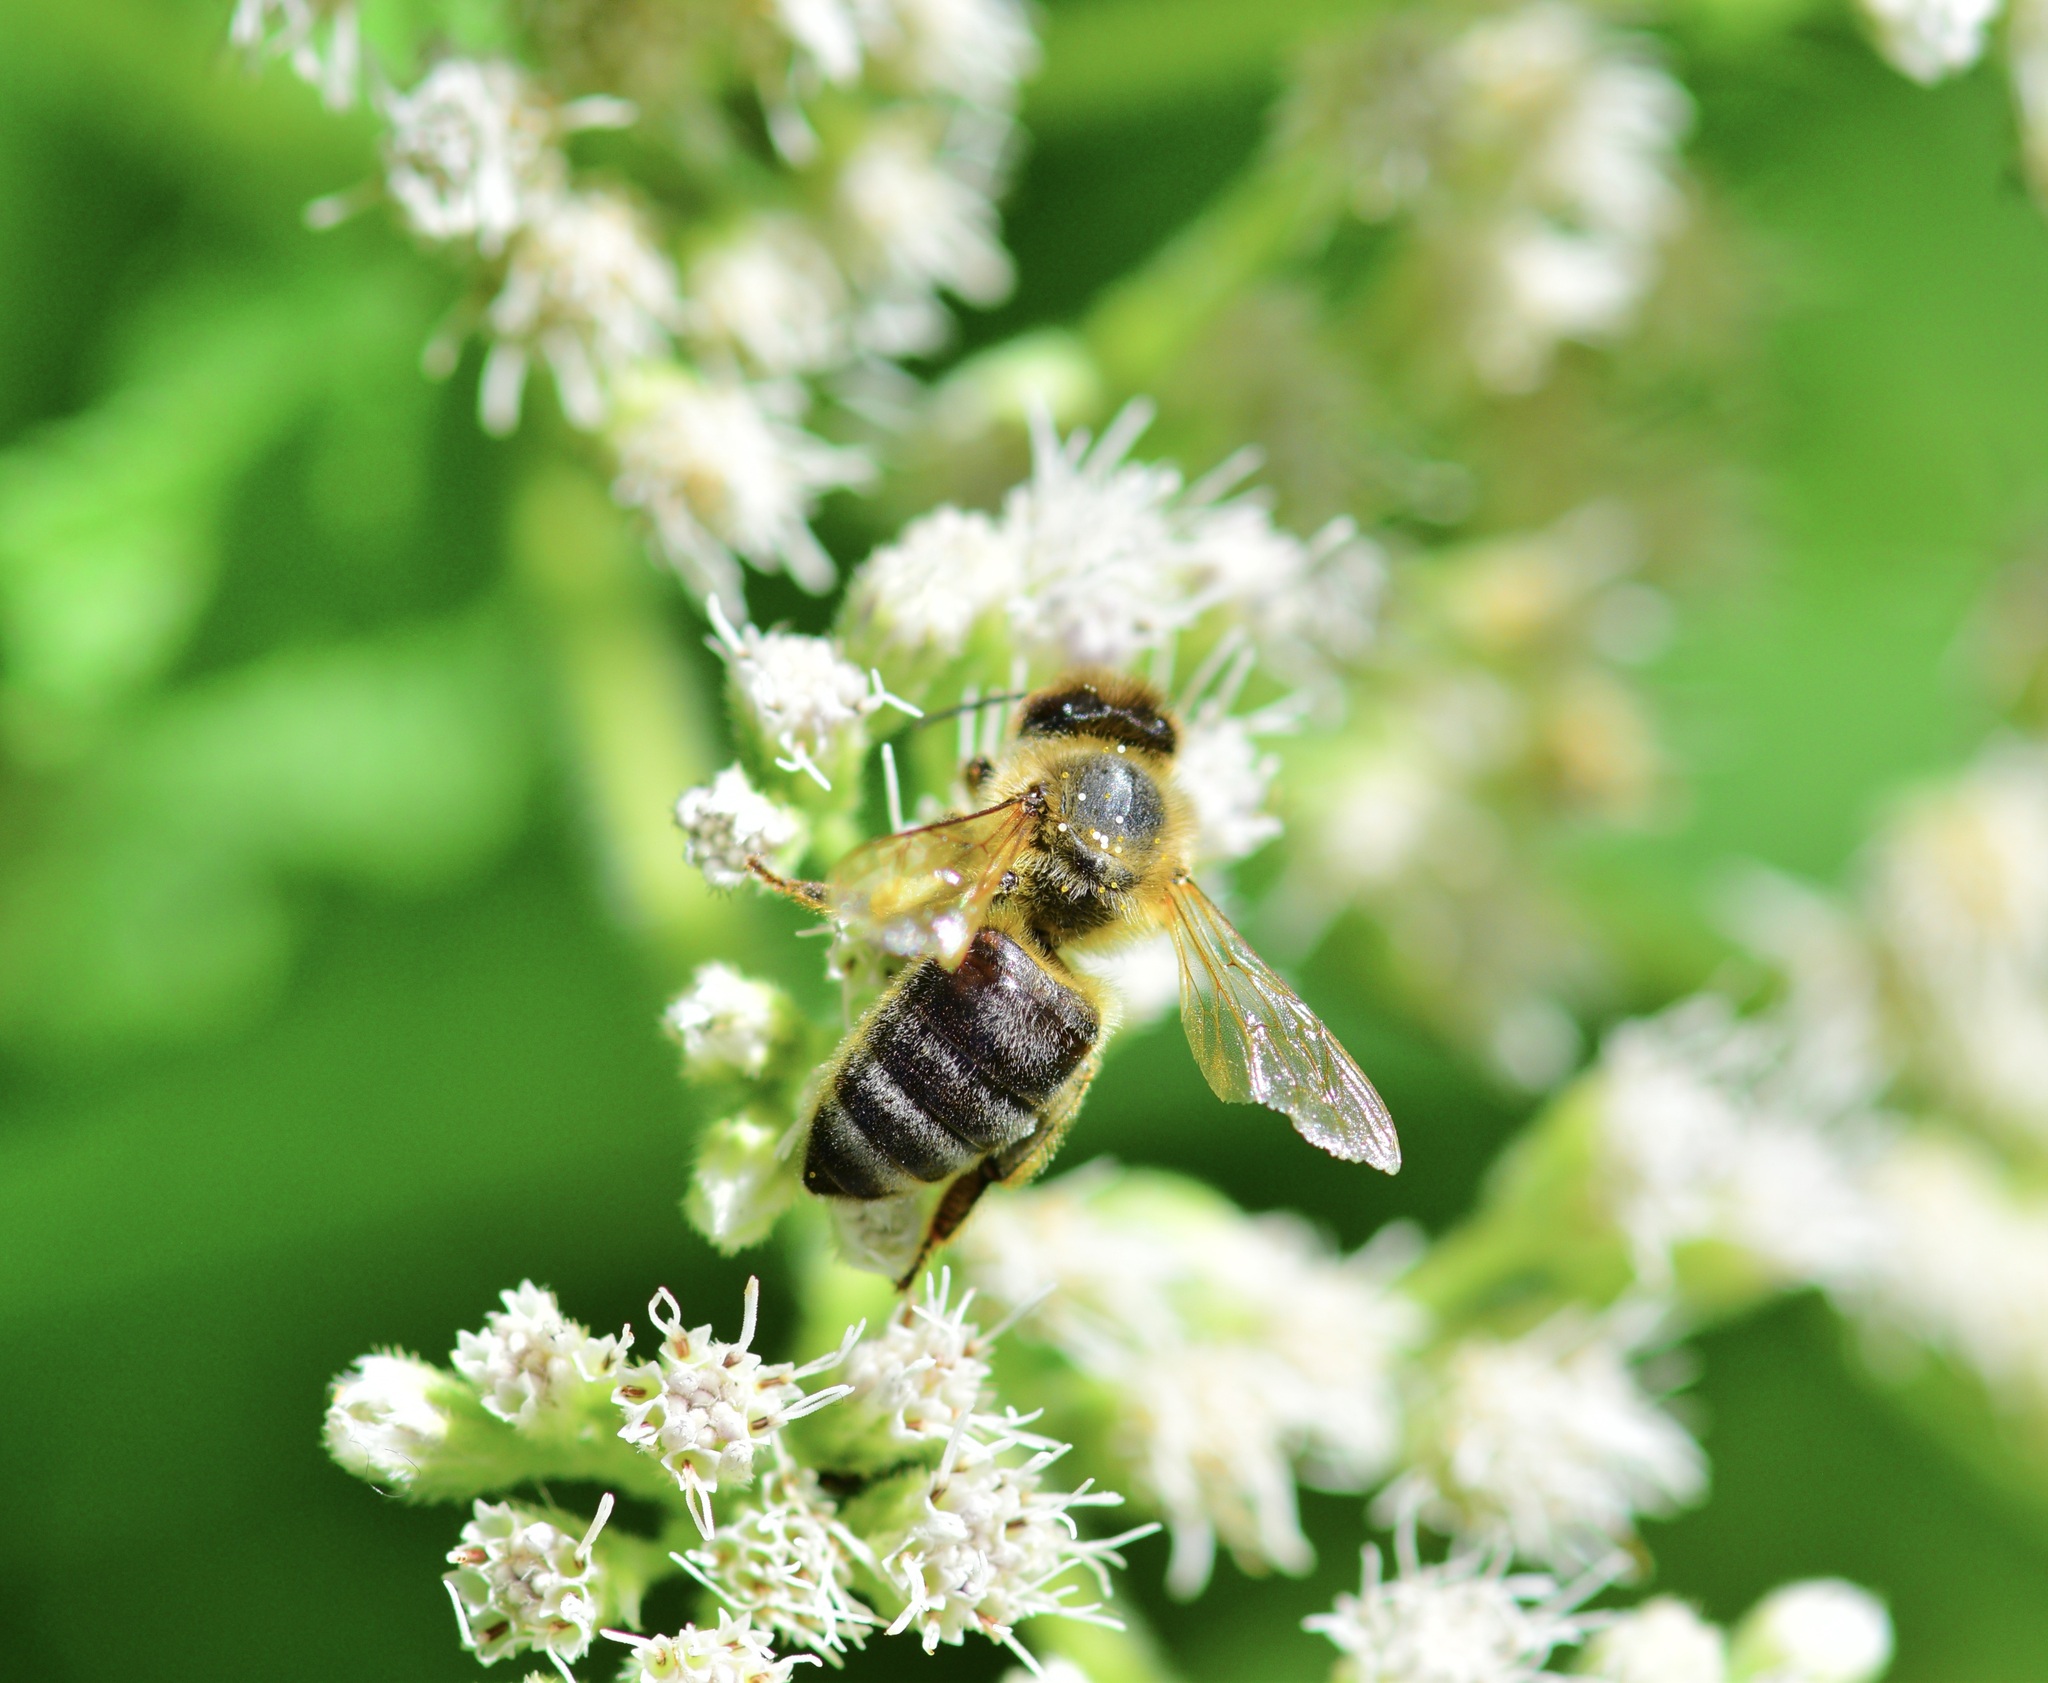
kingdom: Animalia
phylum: Arthropoda
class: Insecta
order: Hymenoptera
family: Apidae
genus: Apis
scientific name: Apis mellifera
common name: Honey bee
